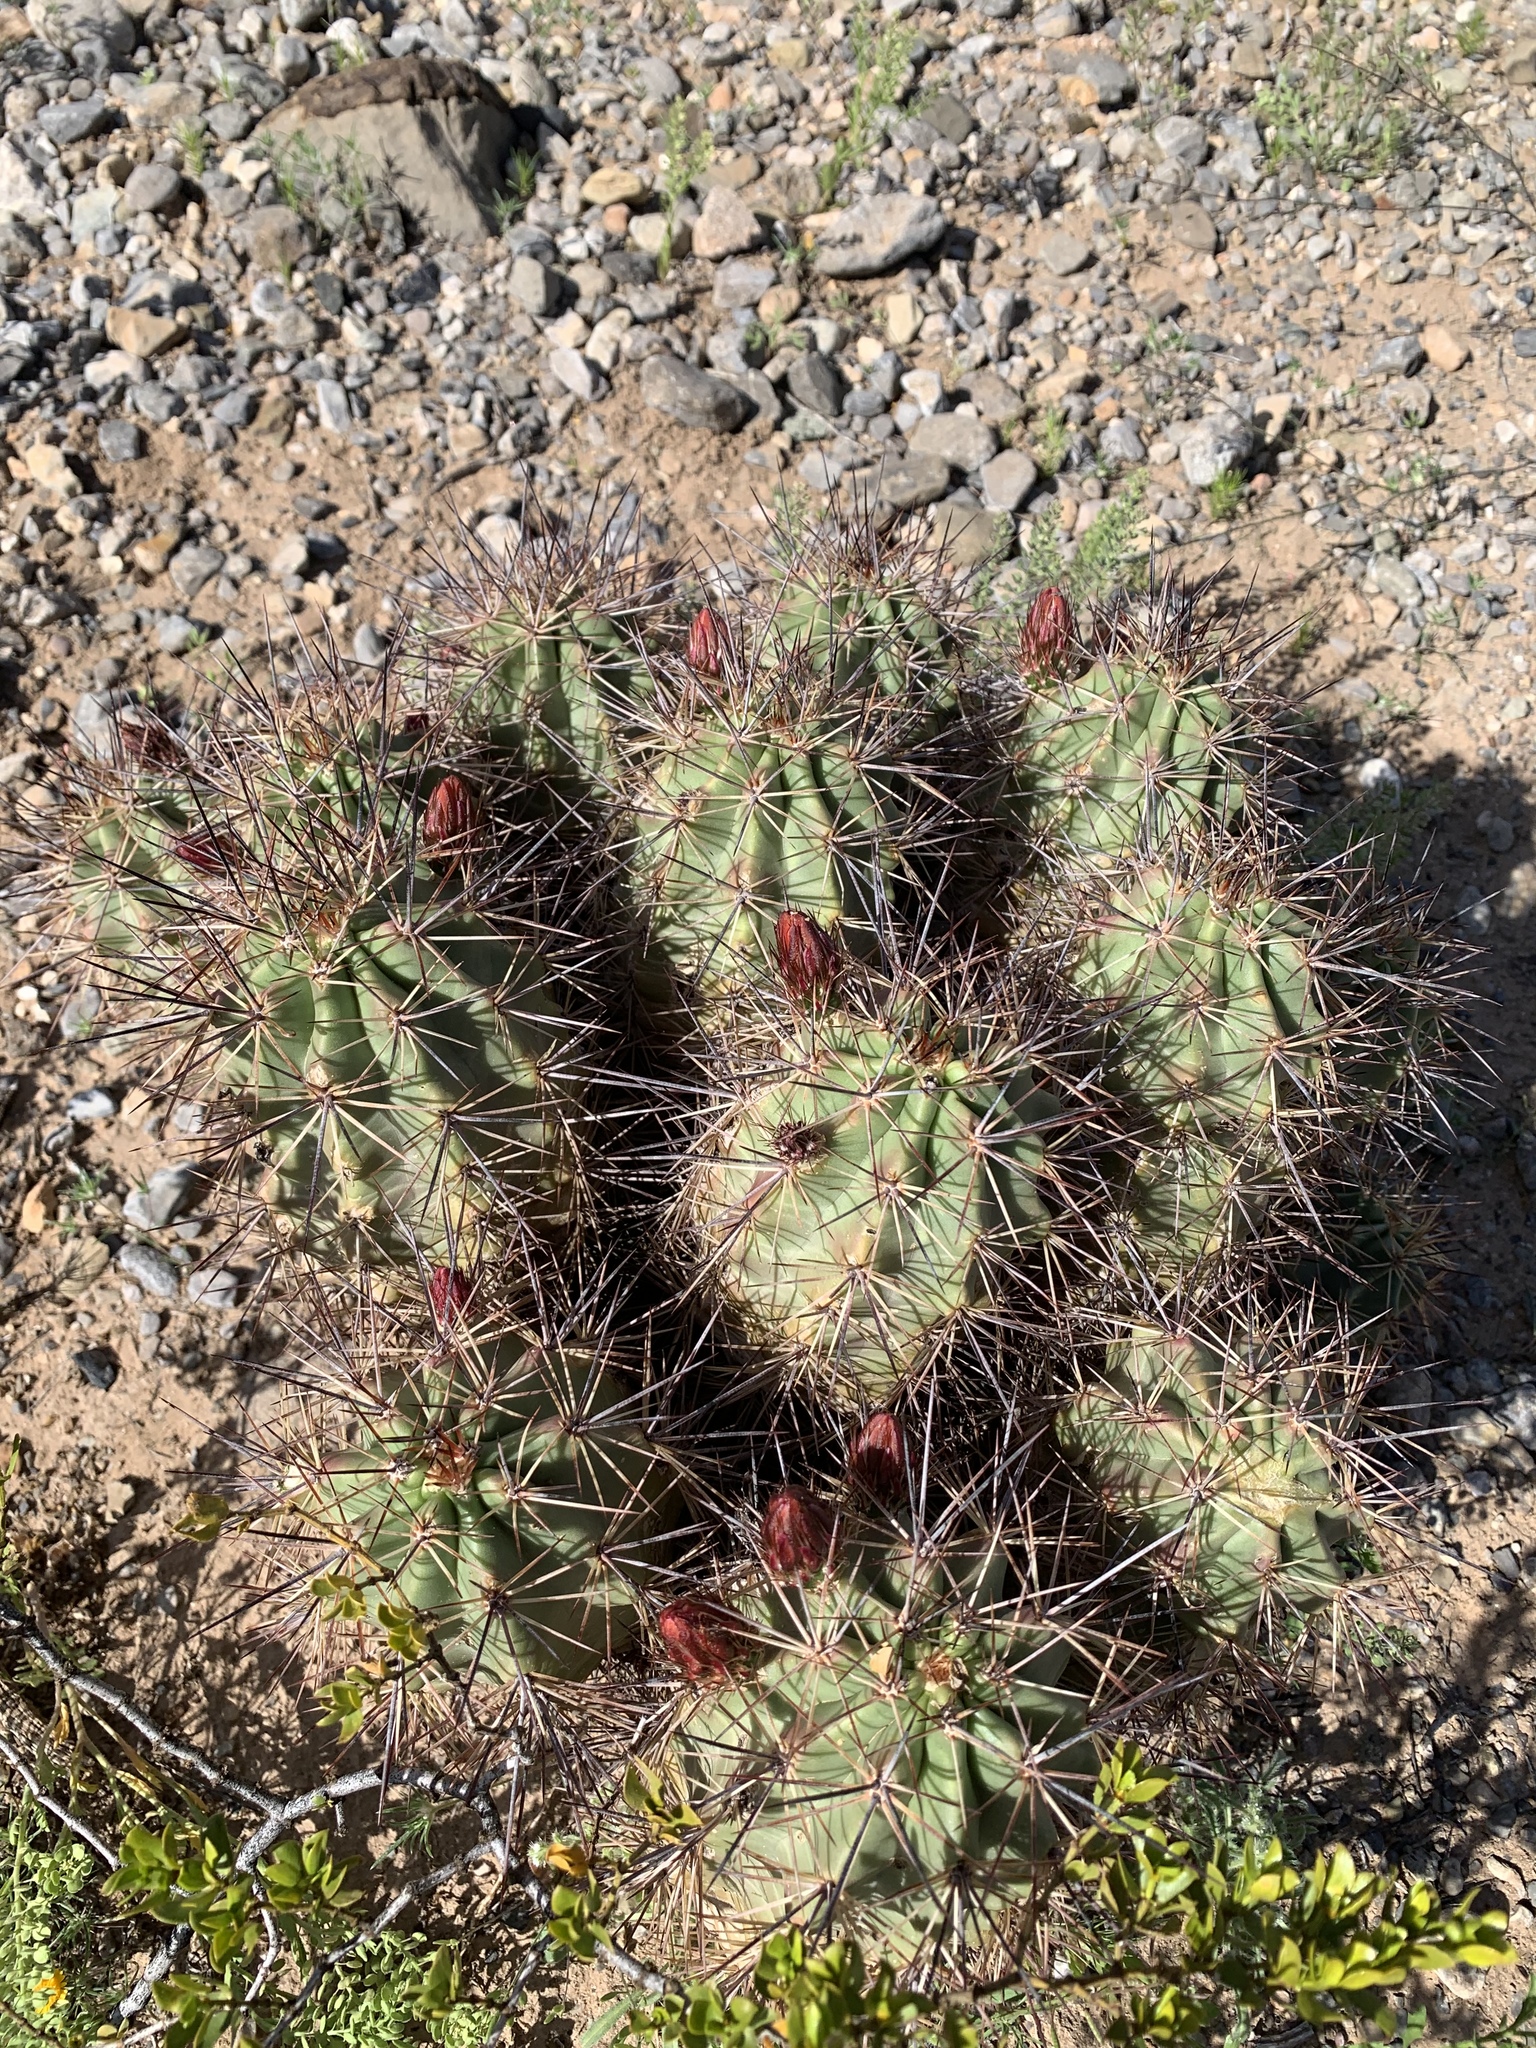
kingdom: Plantae
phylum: Tracheophyta
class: Magnoliopsida
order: Caryophyllales
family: Cactaceae
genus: Echinocereus
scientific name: Echinocereus coccineus
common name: Scarlet hedgehog cactus
